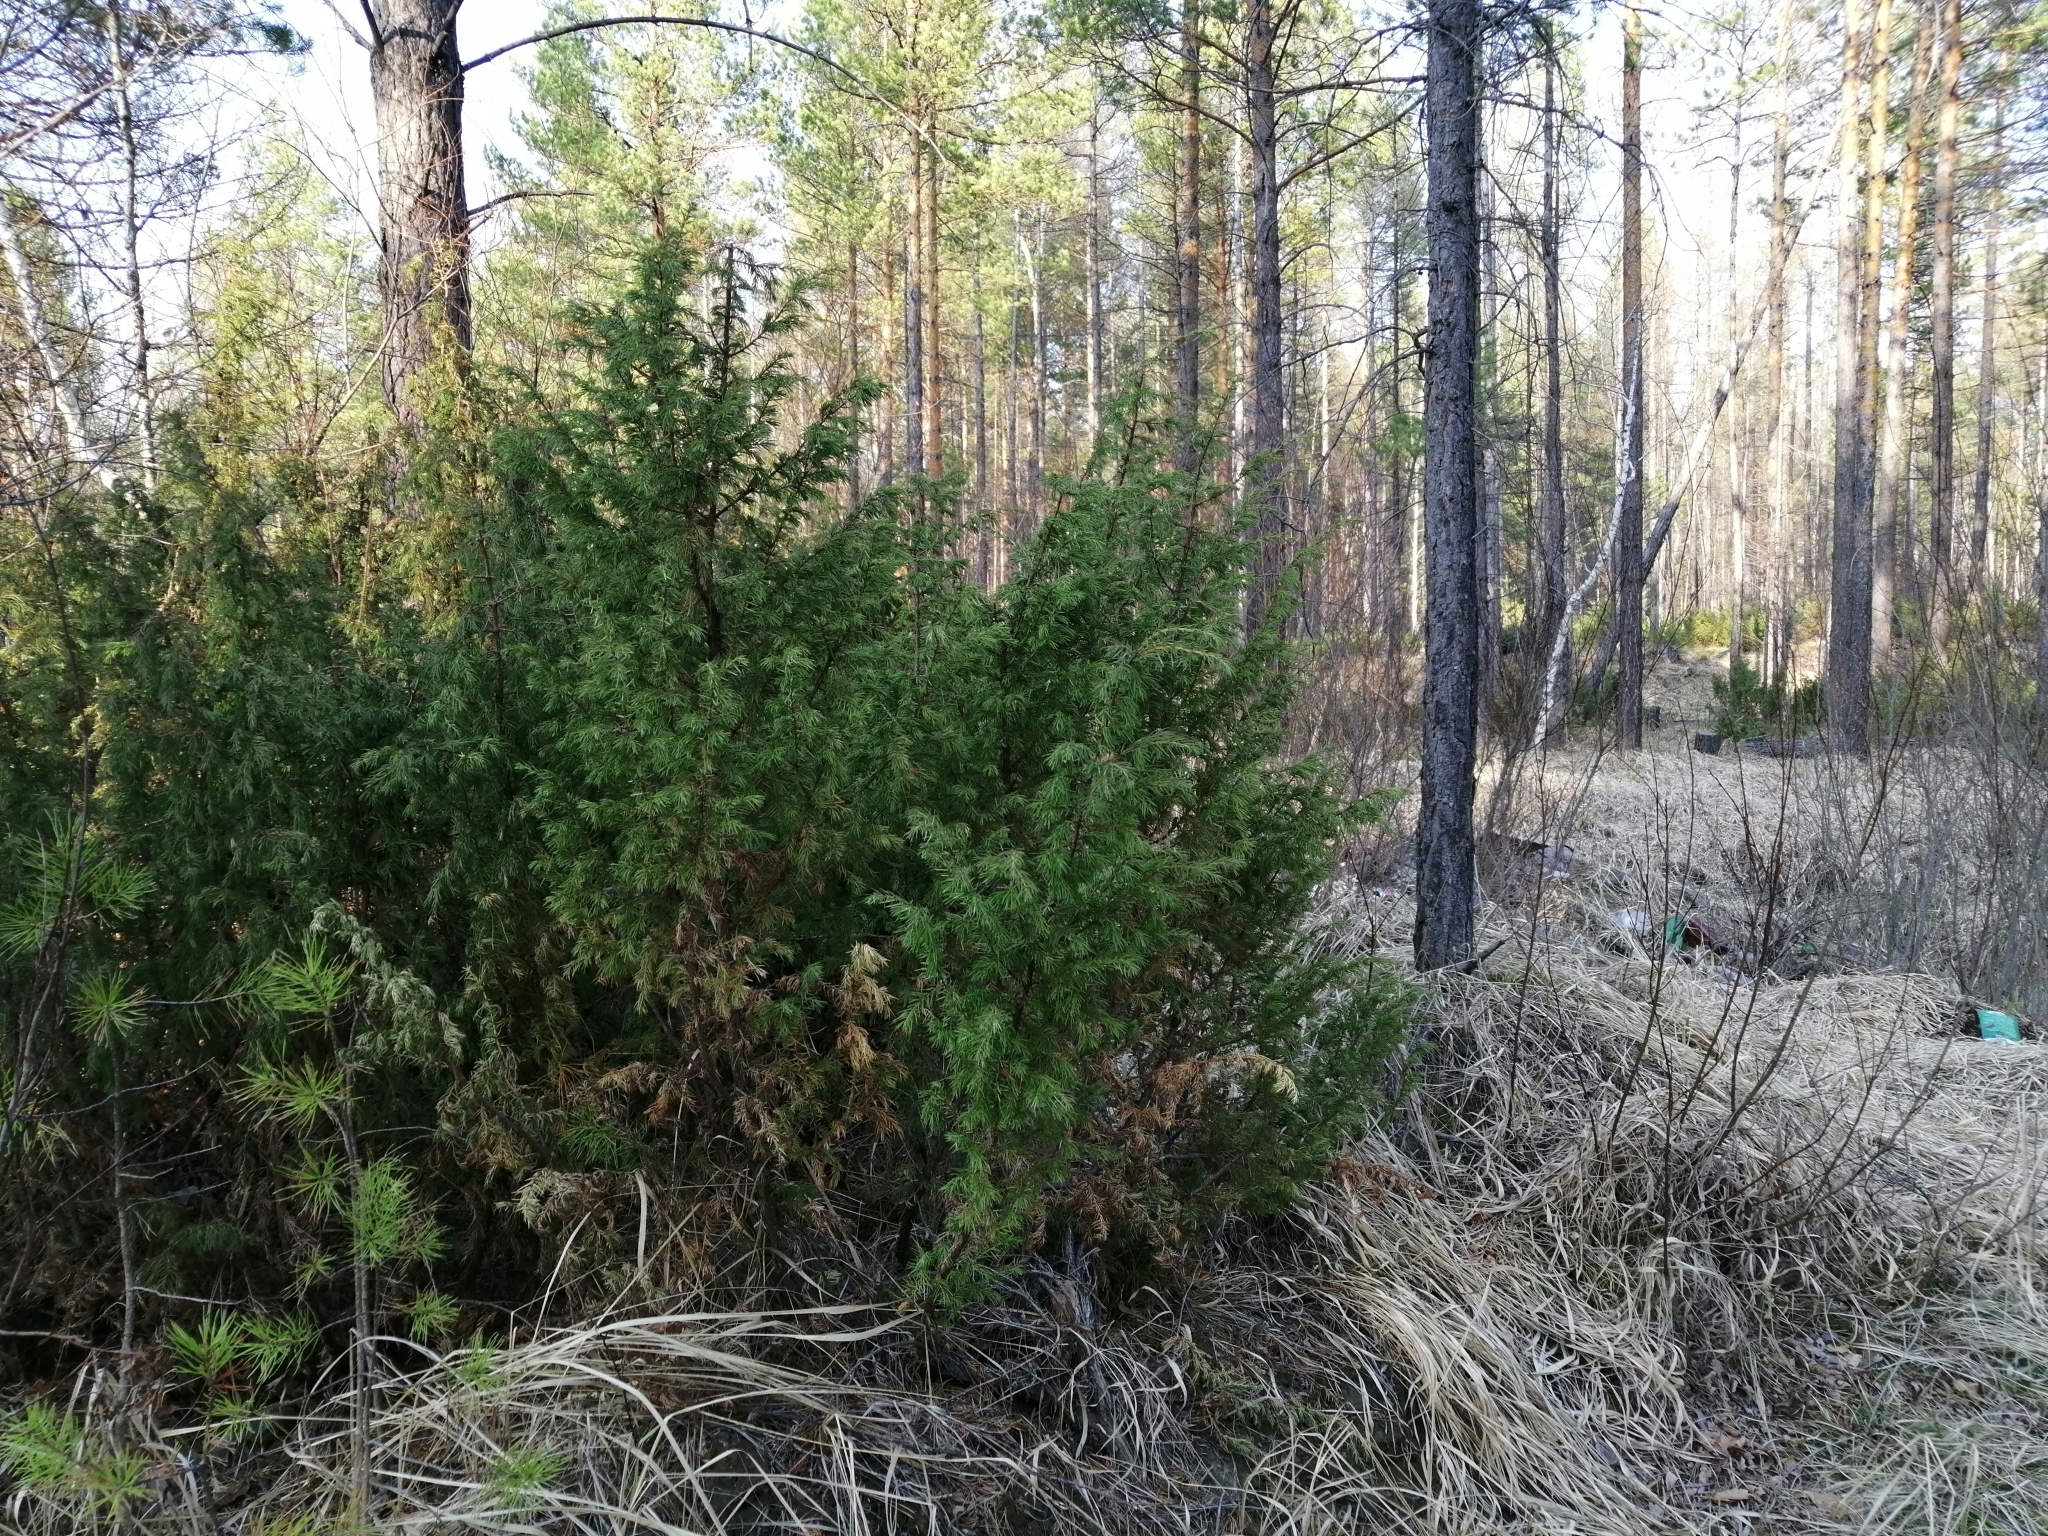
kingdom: Plantae
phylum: Tracheophyta
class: Pinopsida
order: Pinales
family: Cupressaceae
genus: Juniperus
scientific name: Juniperus communis
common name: Common juniper
